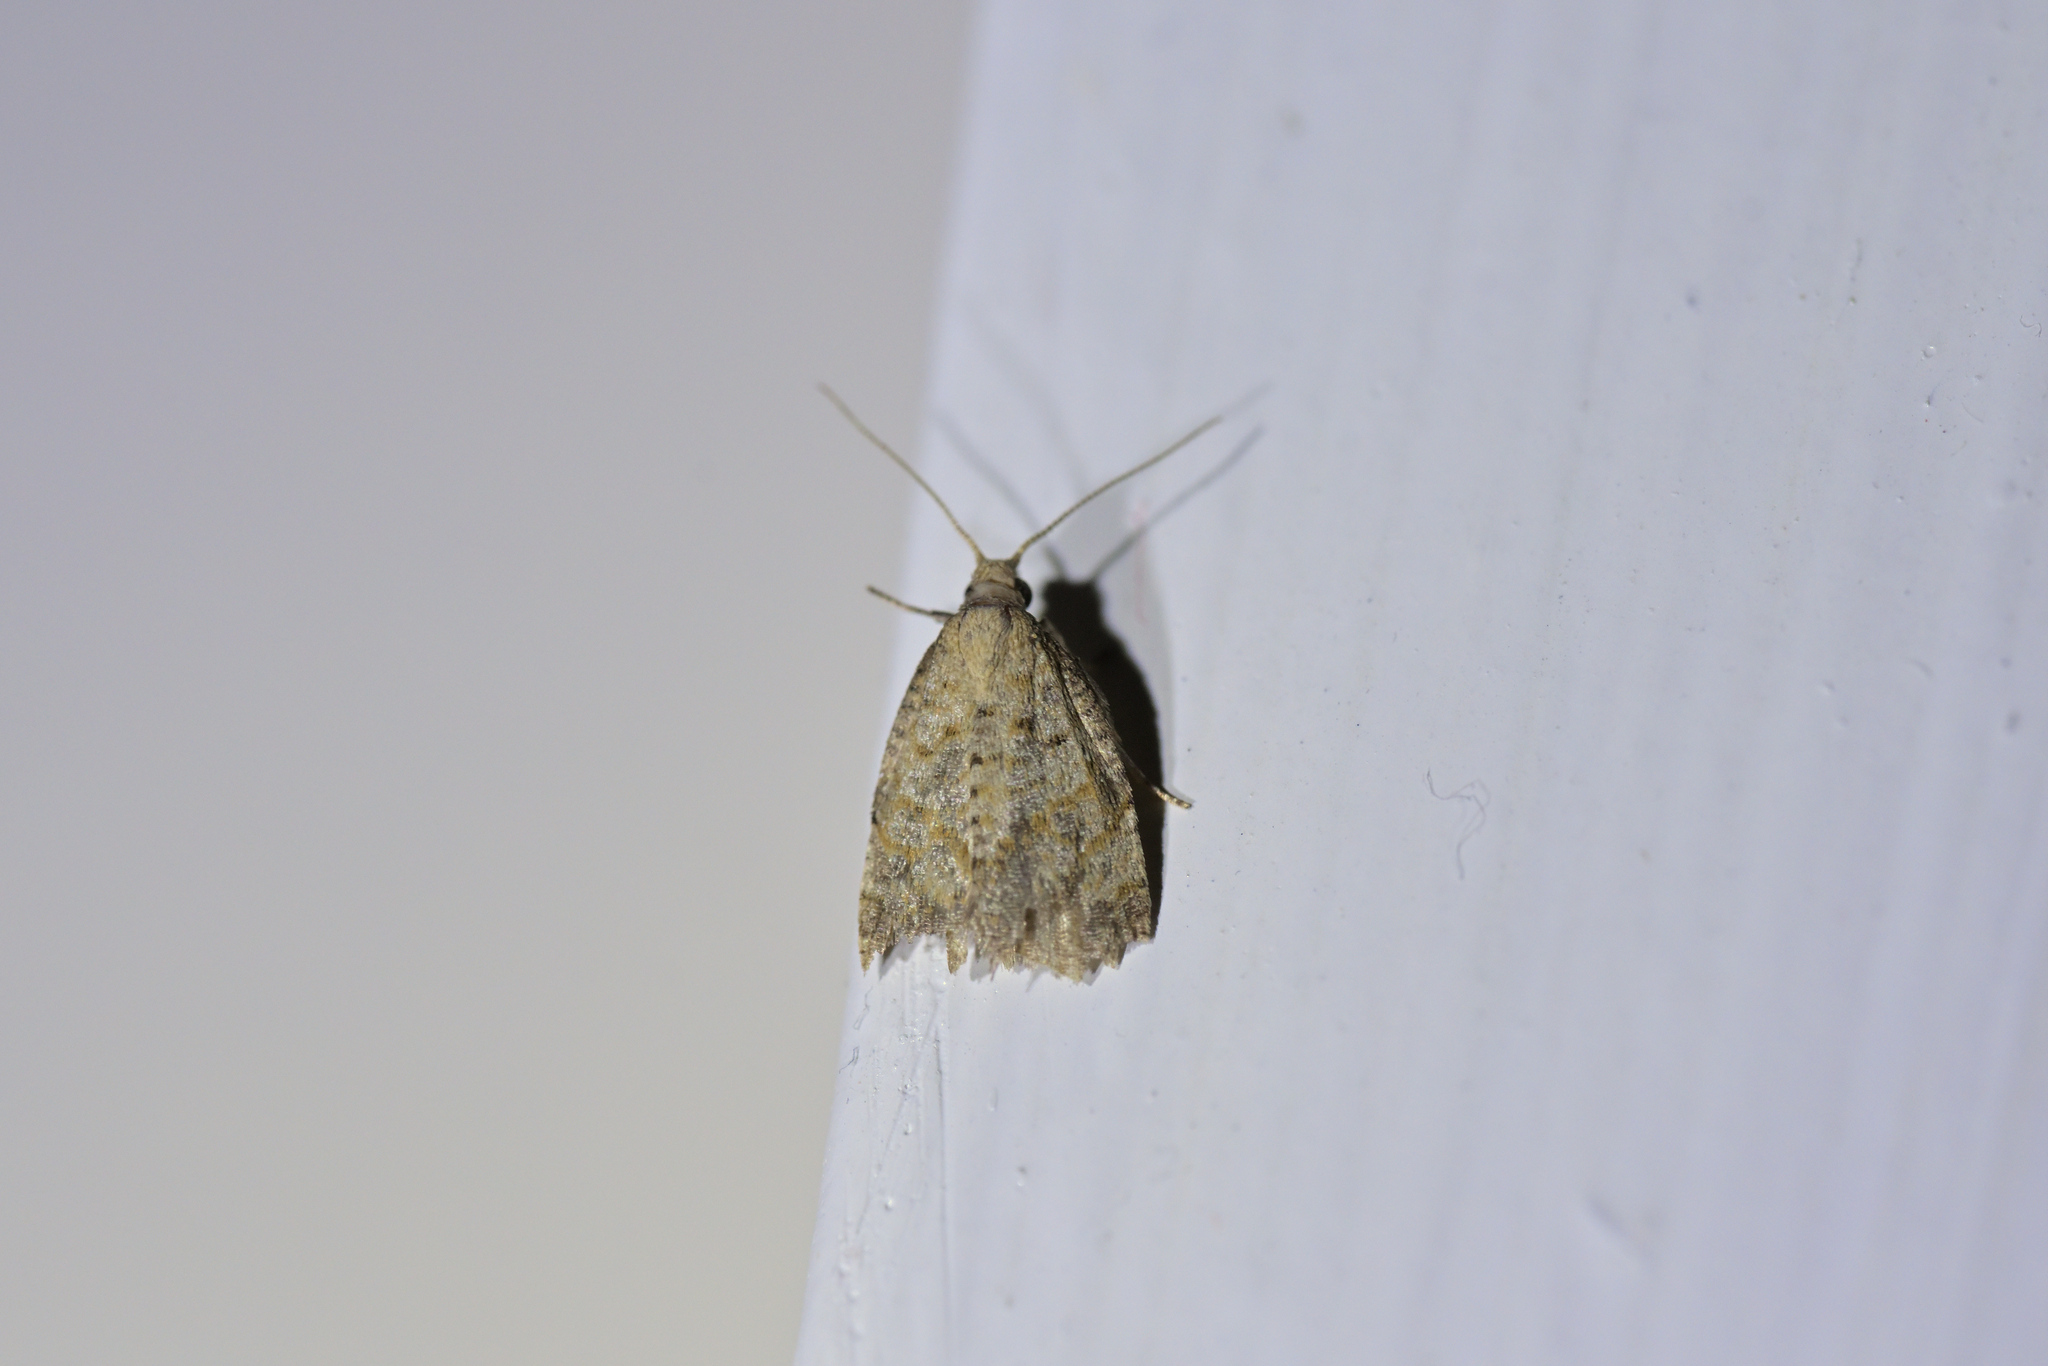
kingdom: Animalia
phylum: Arthropoda
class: Insecta
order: Lepidoptera
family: Tortricidae
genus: Dipterina
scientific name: Dipterina imbriferana
